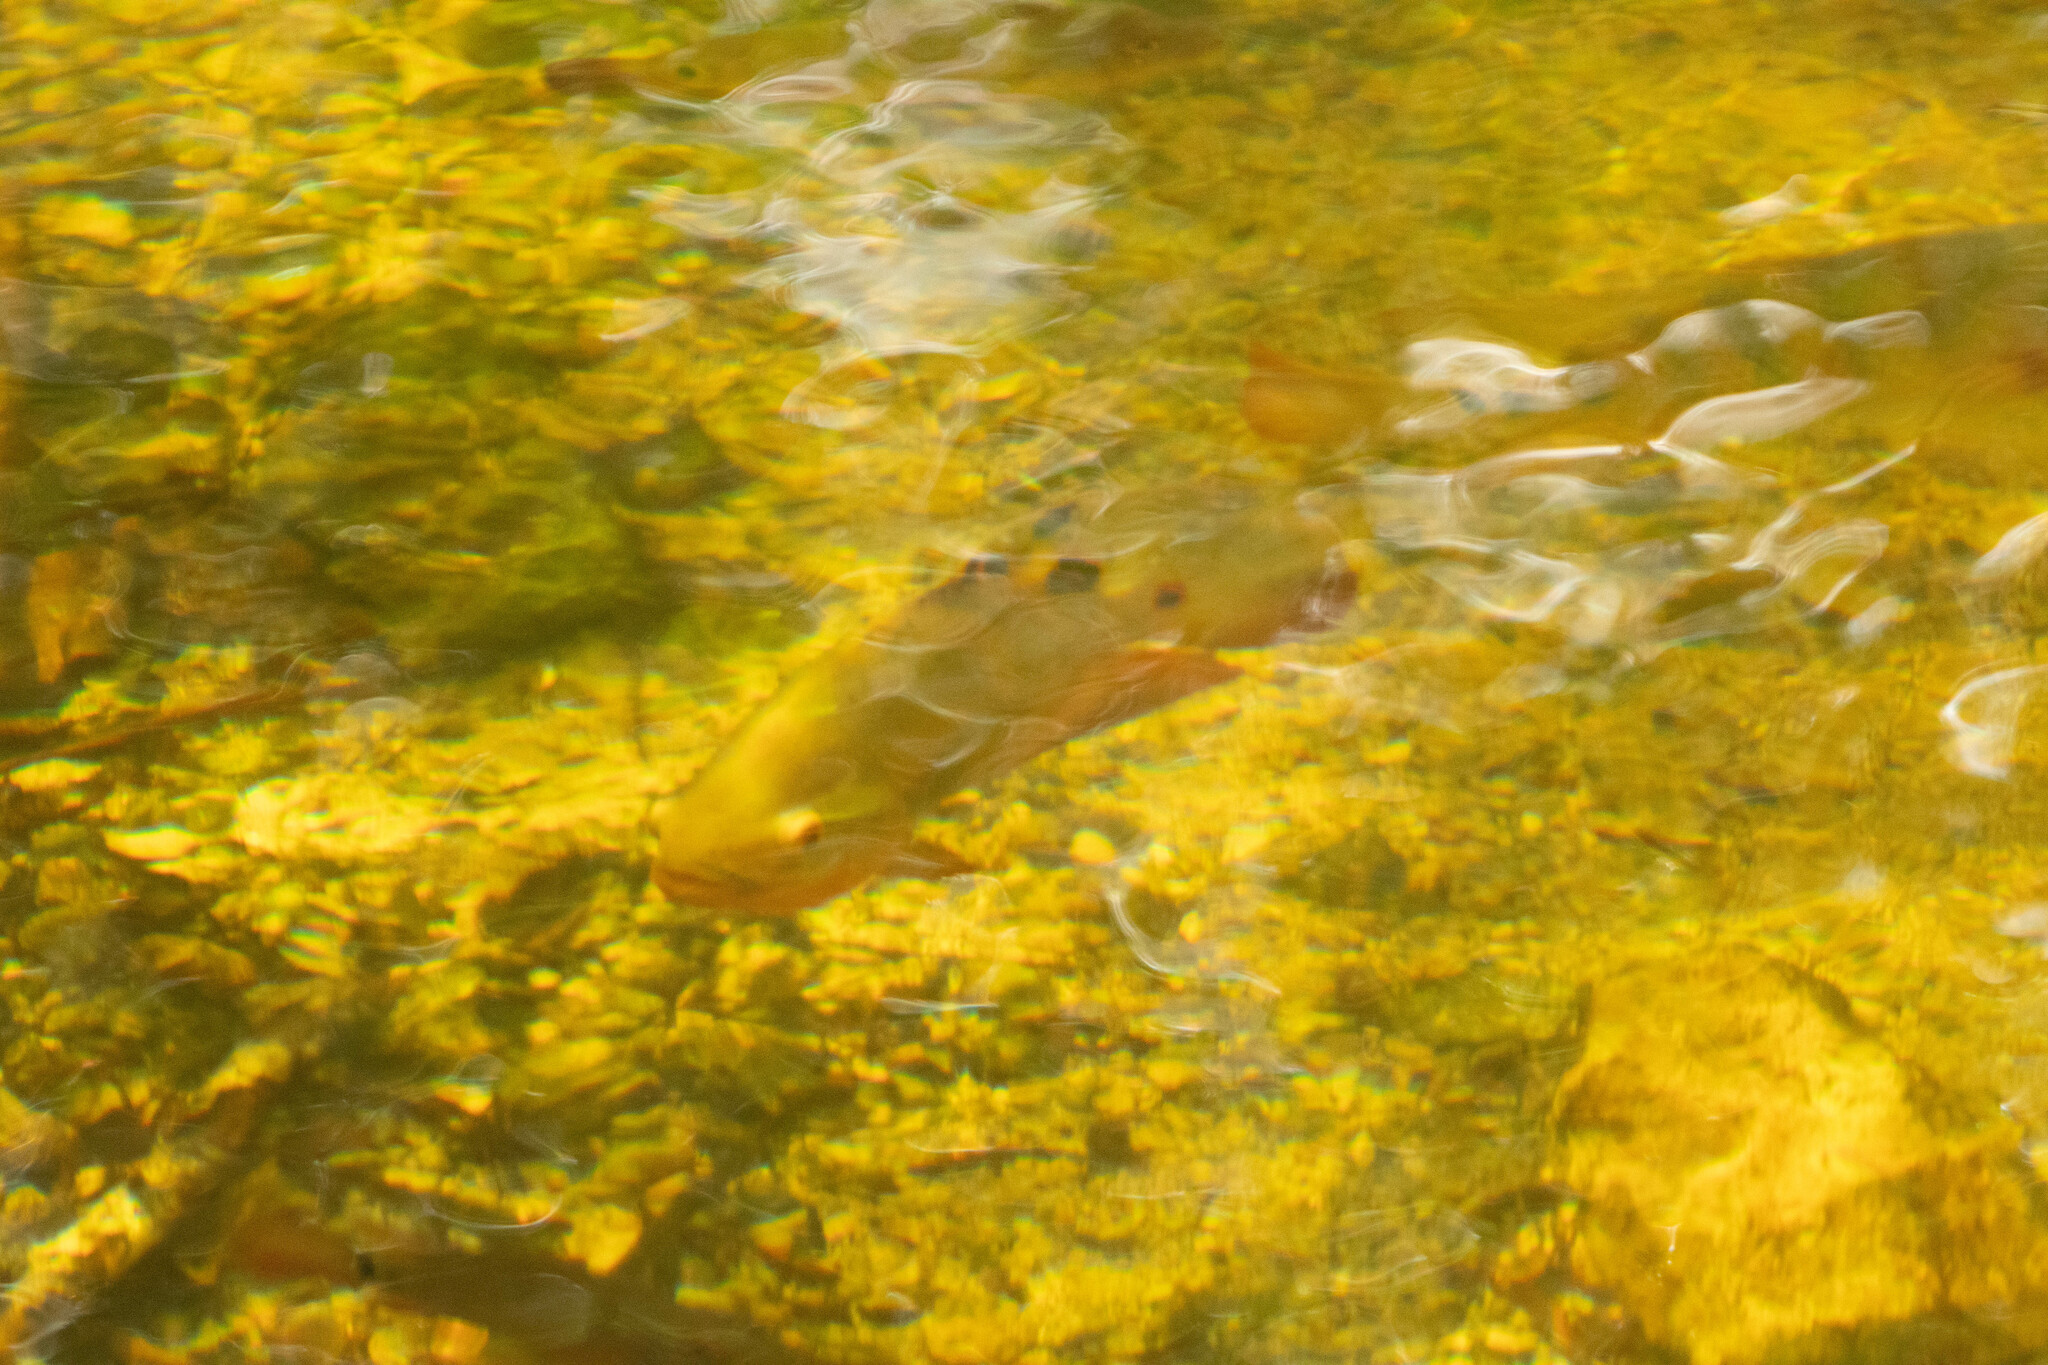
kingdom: Animalia
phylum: Chordata
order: Perciformes
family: Cichlidae
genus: Mayaheros
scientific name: Mayaheros urophthalmus
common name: Mayan cichlid
